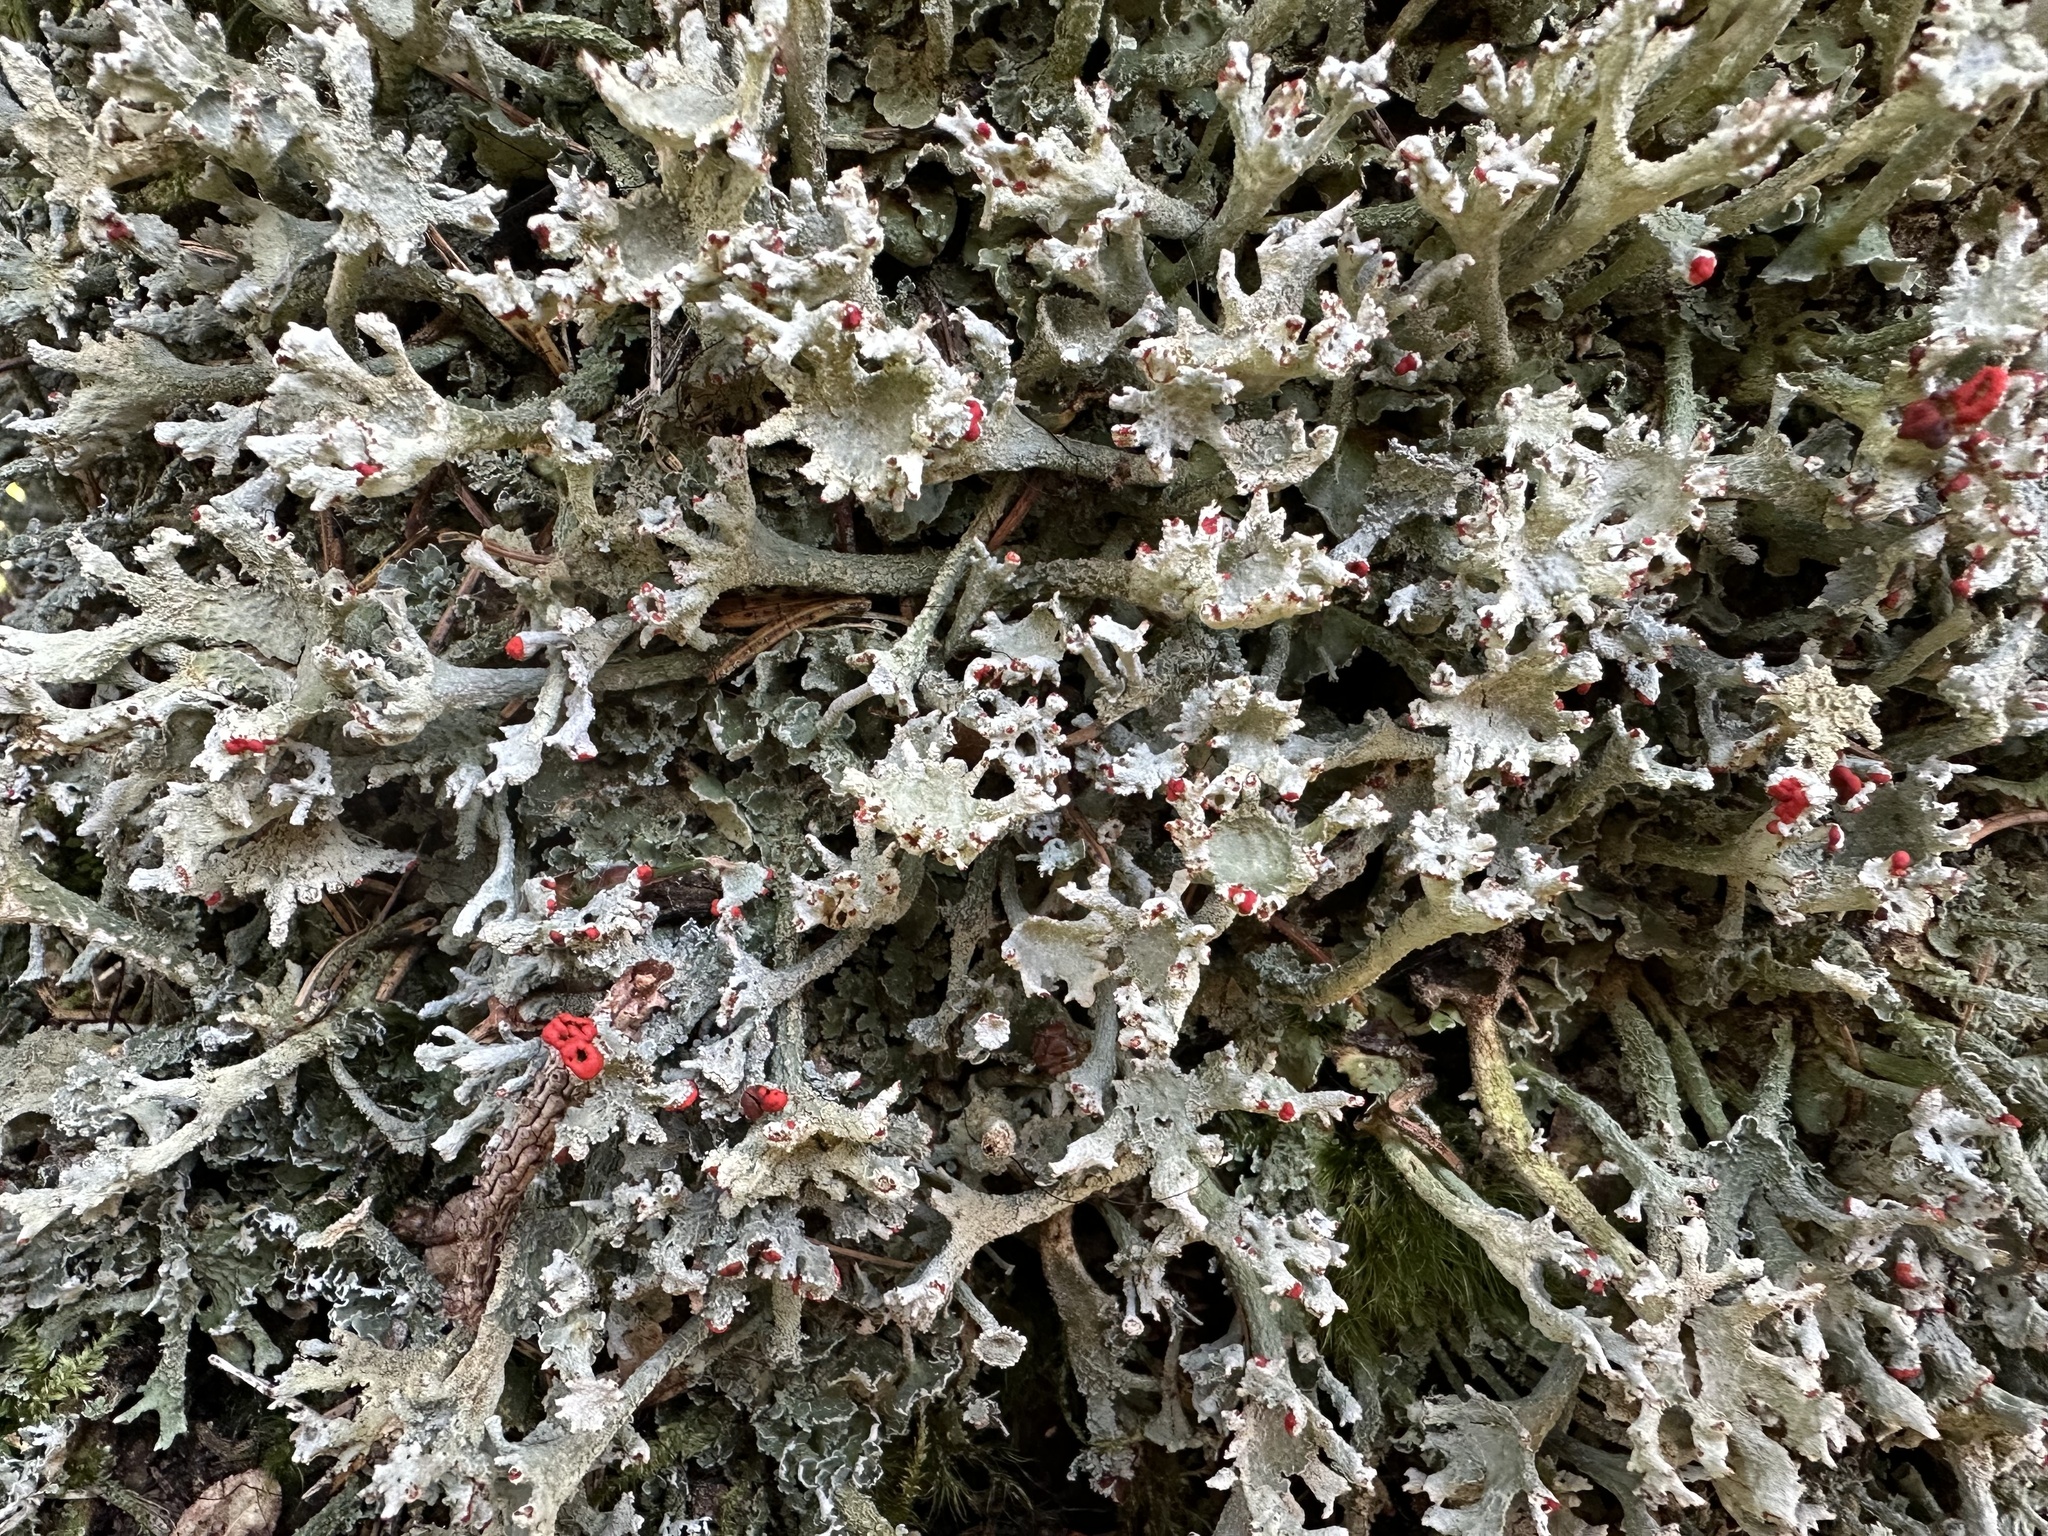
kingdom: Fungi
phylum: Ascomycota
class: Lecanoromycetes
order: Lecanorales
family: Cladoniaceae
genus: Cladonia
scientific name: Cladonia digitata
